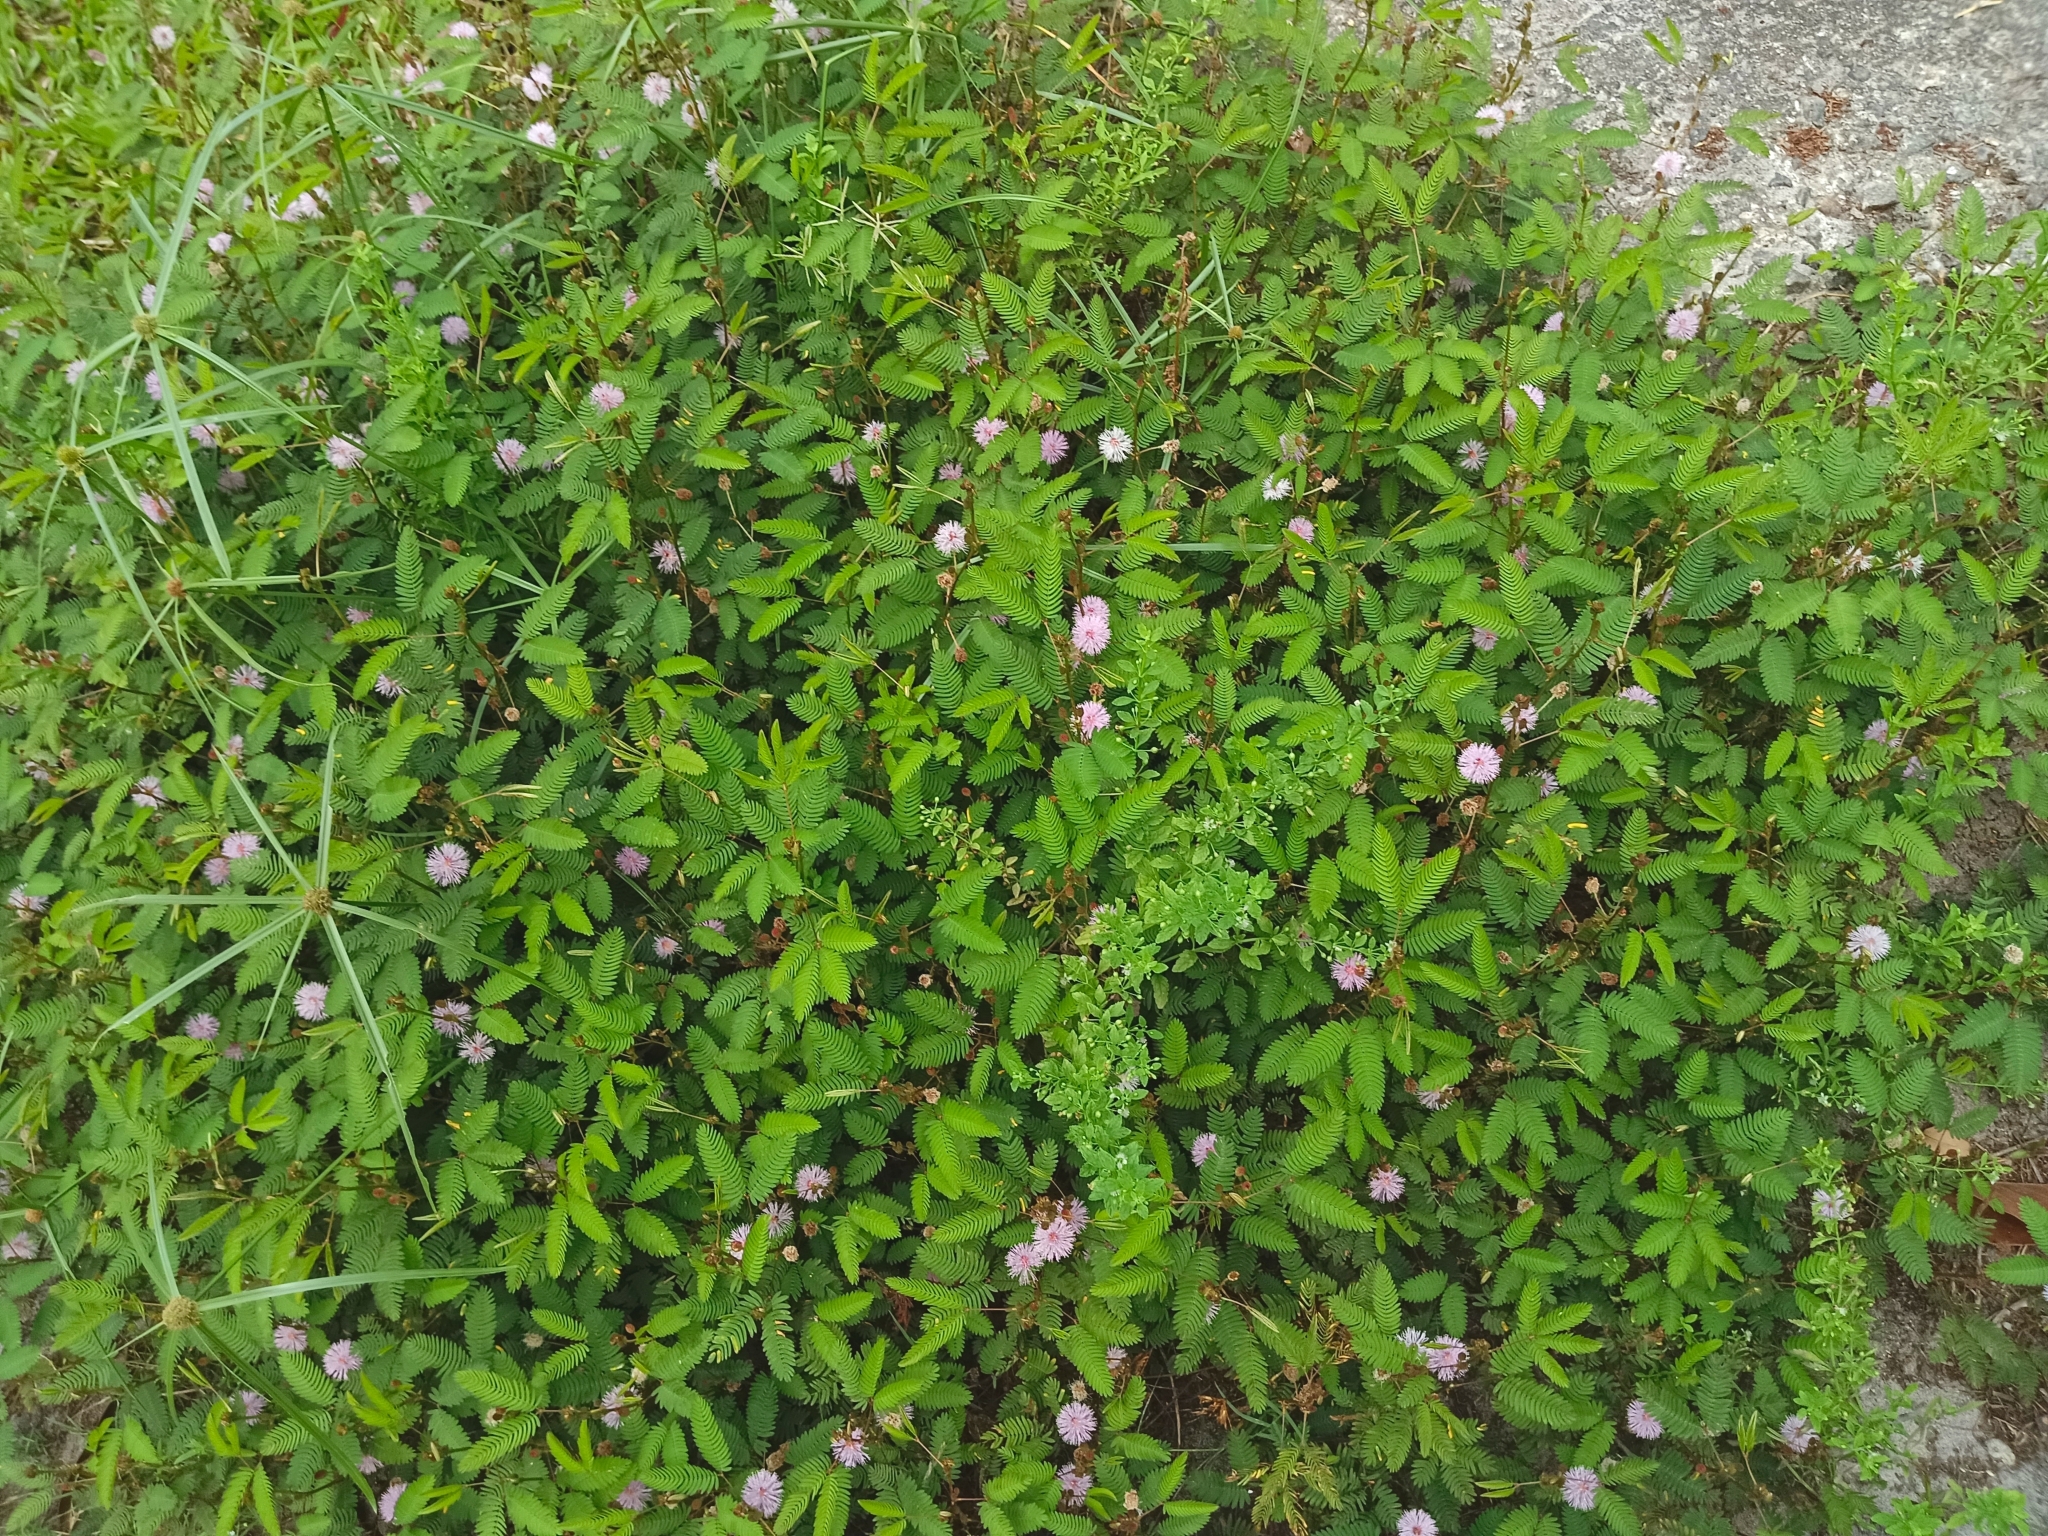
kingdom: Plantae
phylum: Tracheophyta
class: Magnoliopsida
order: Fabales
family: Fabaceae
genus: Mimosa
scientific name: Mimosa pudica
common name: Sensitive plant
